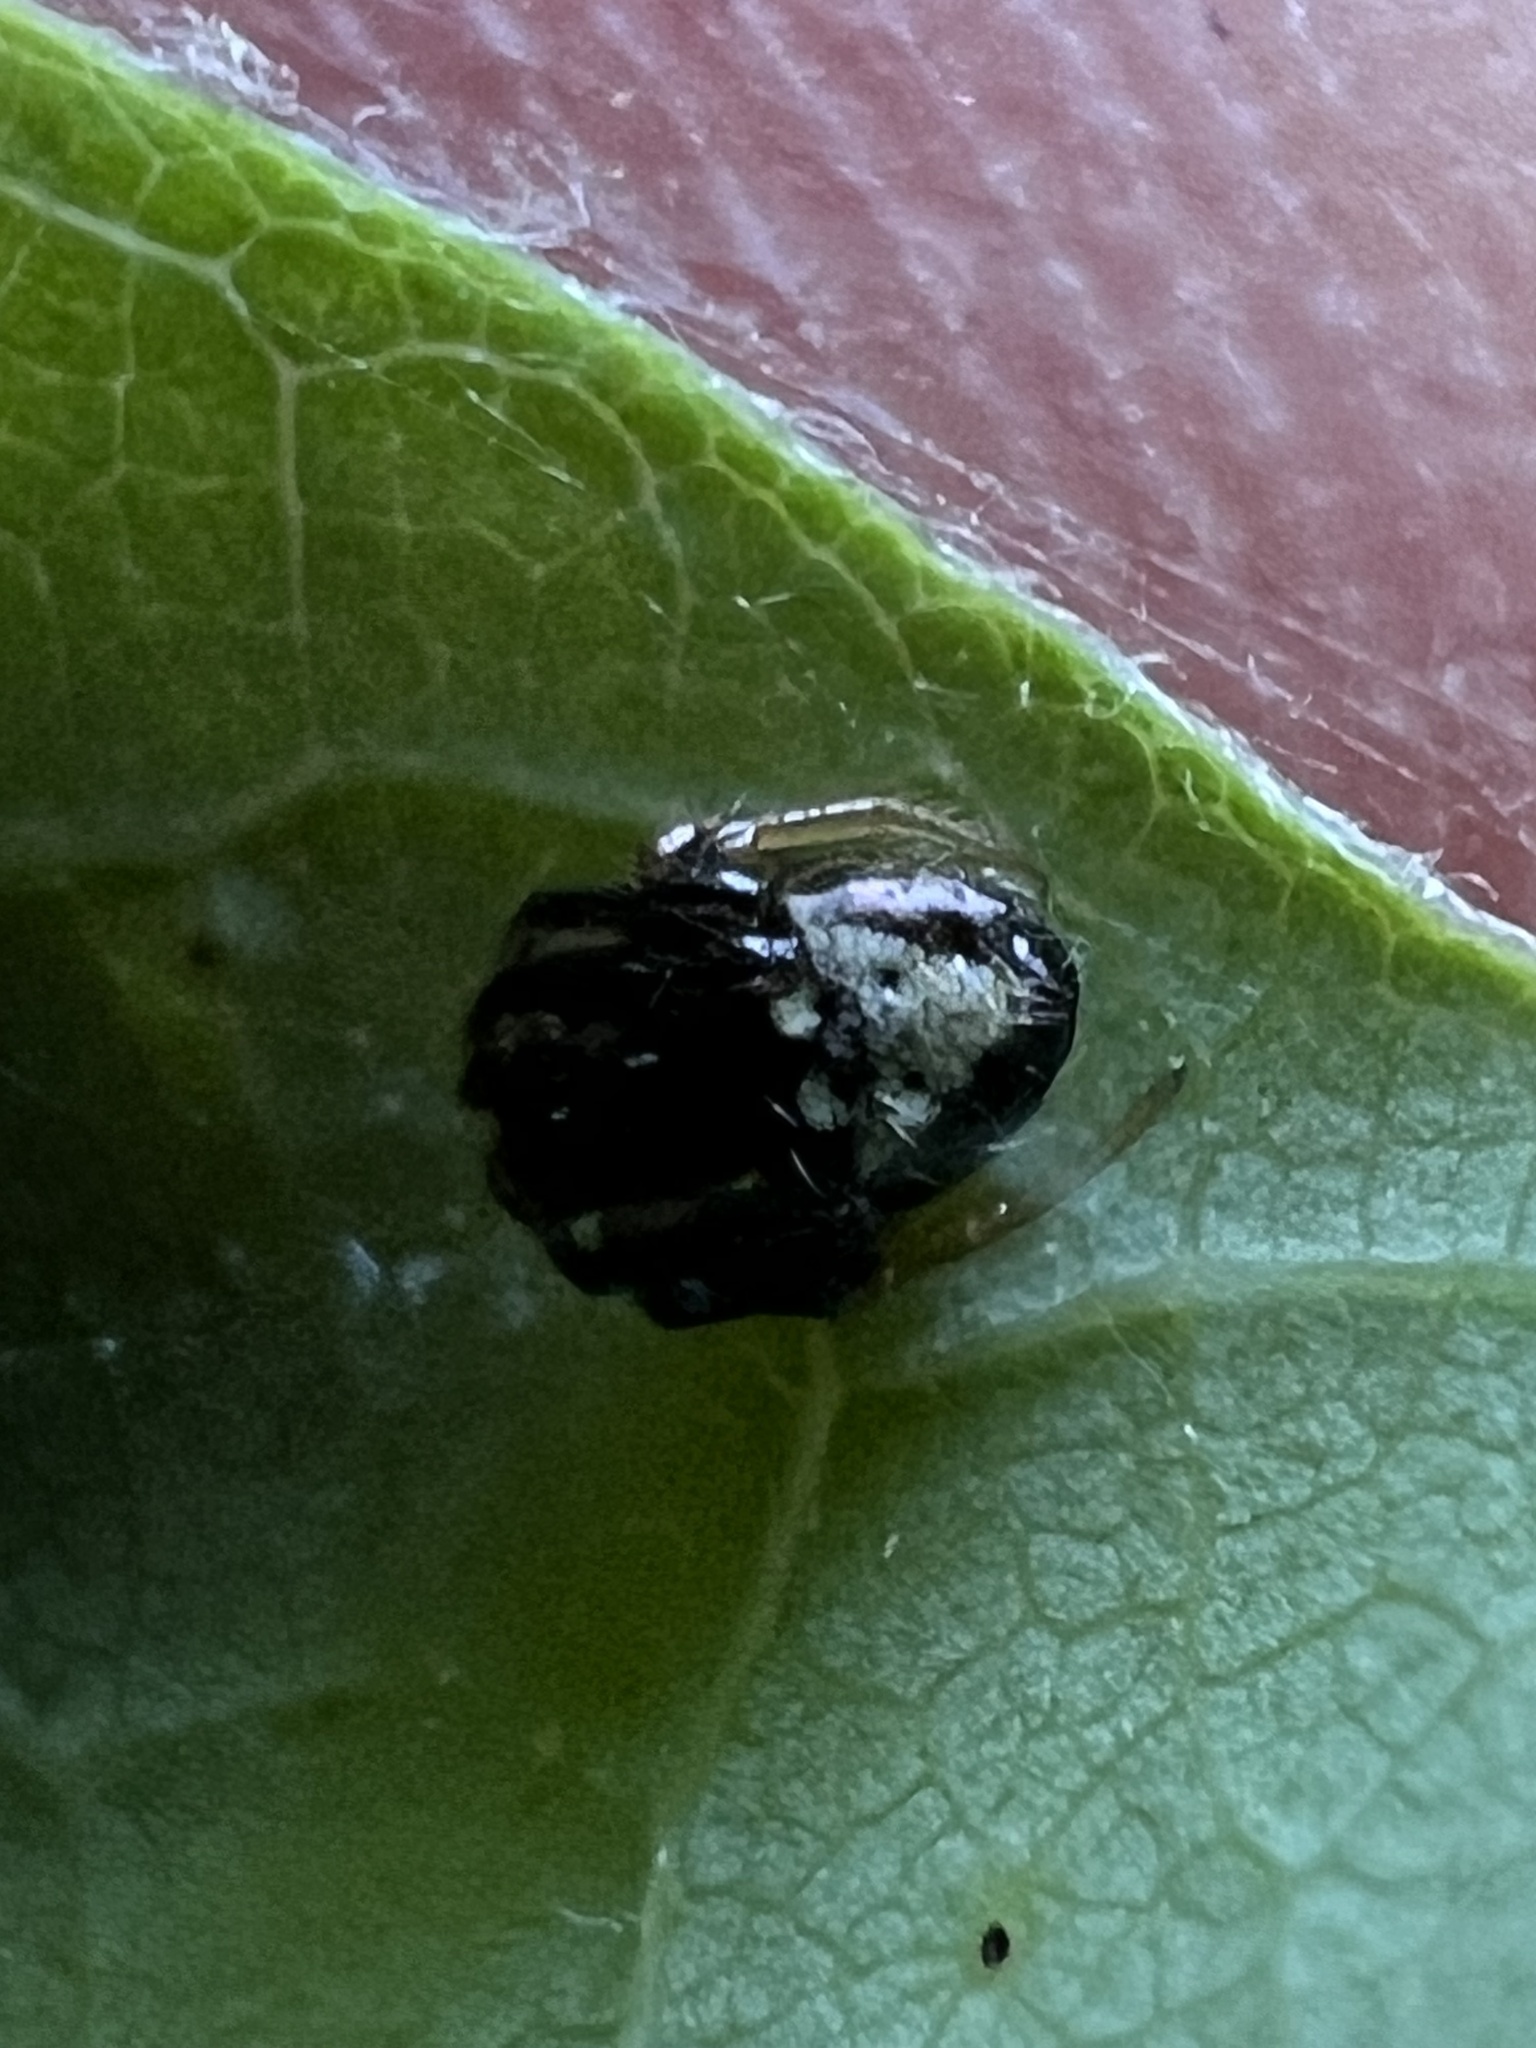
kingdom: Animalia
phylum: Arthropoda
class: Arachnida
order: Araneae
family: Araneidae
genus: Verrucosa
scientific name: Verrucosa arenata
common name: Orb weavers
